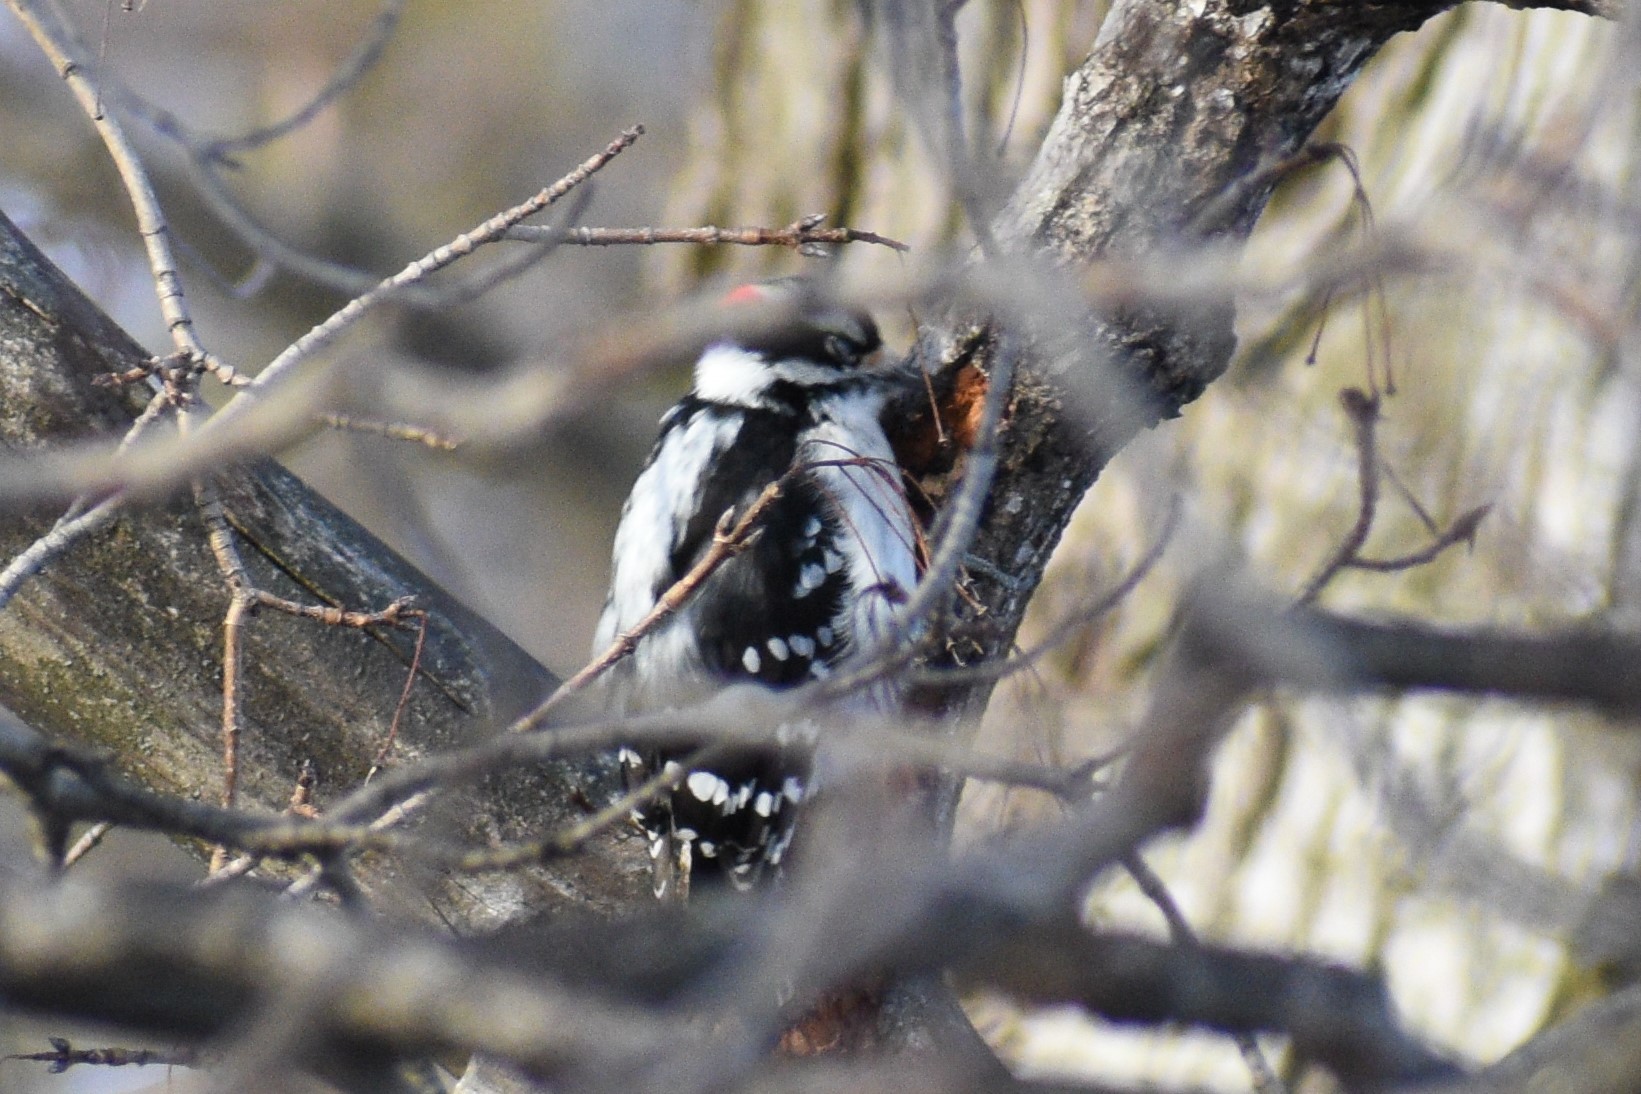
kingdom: Animalia
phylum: Chordata
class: Aves
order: Piciformes
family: Picidae
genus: Dryobates
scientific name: Dryobates pubescens
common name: Downy woodpecker
